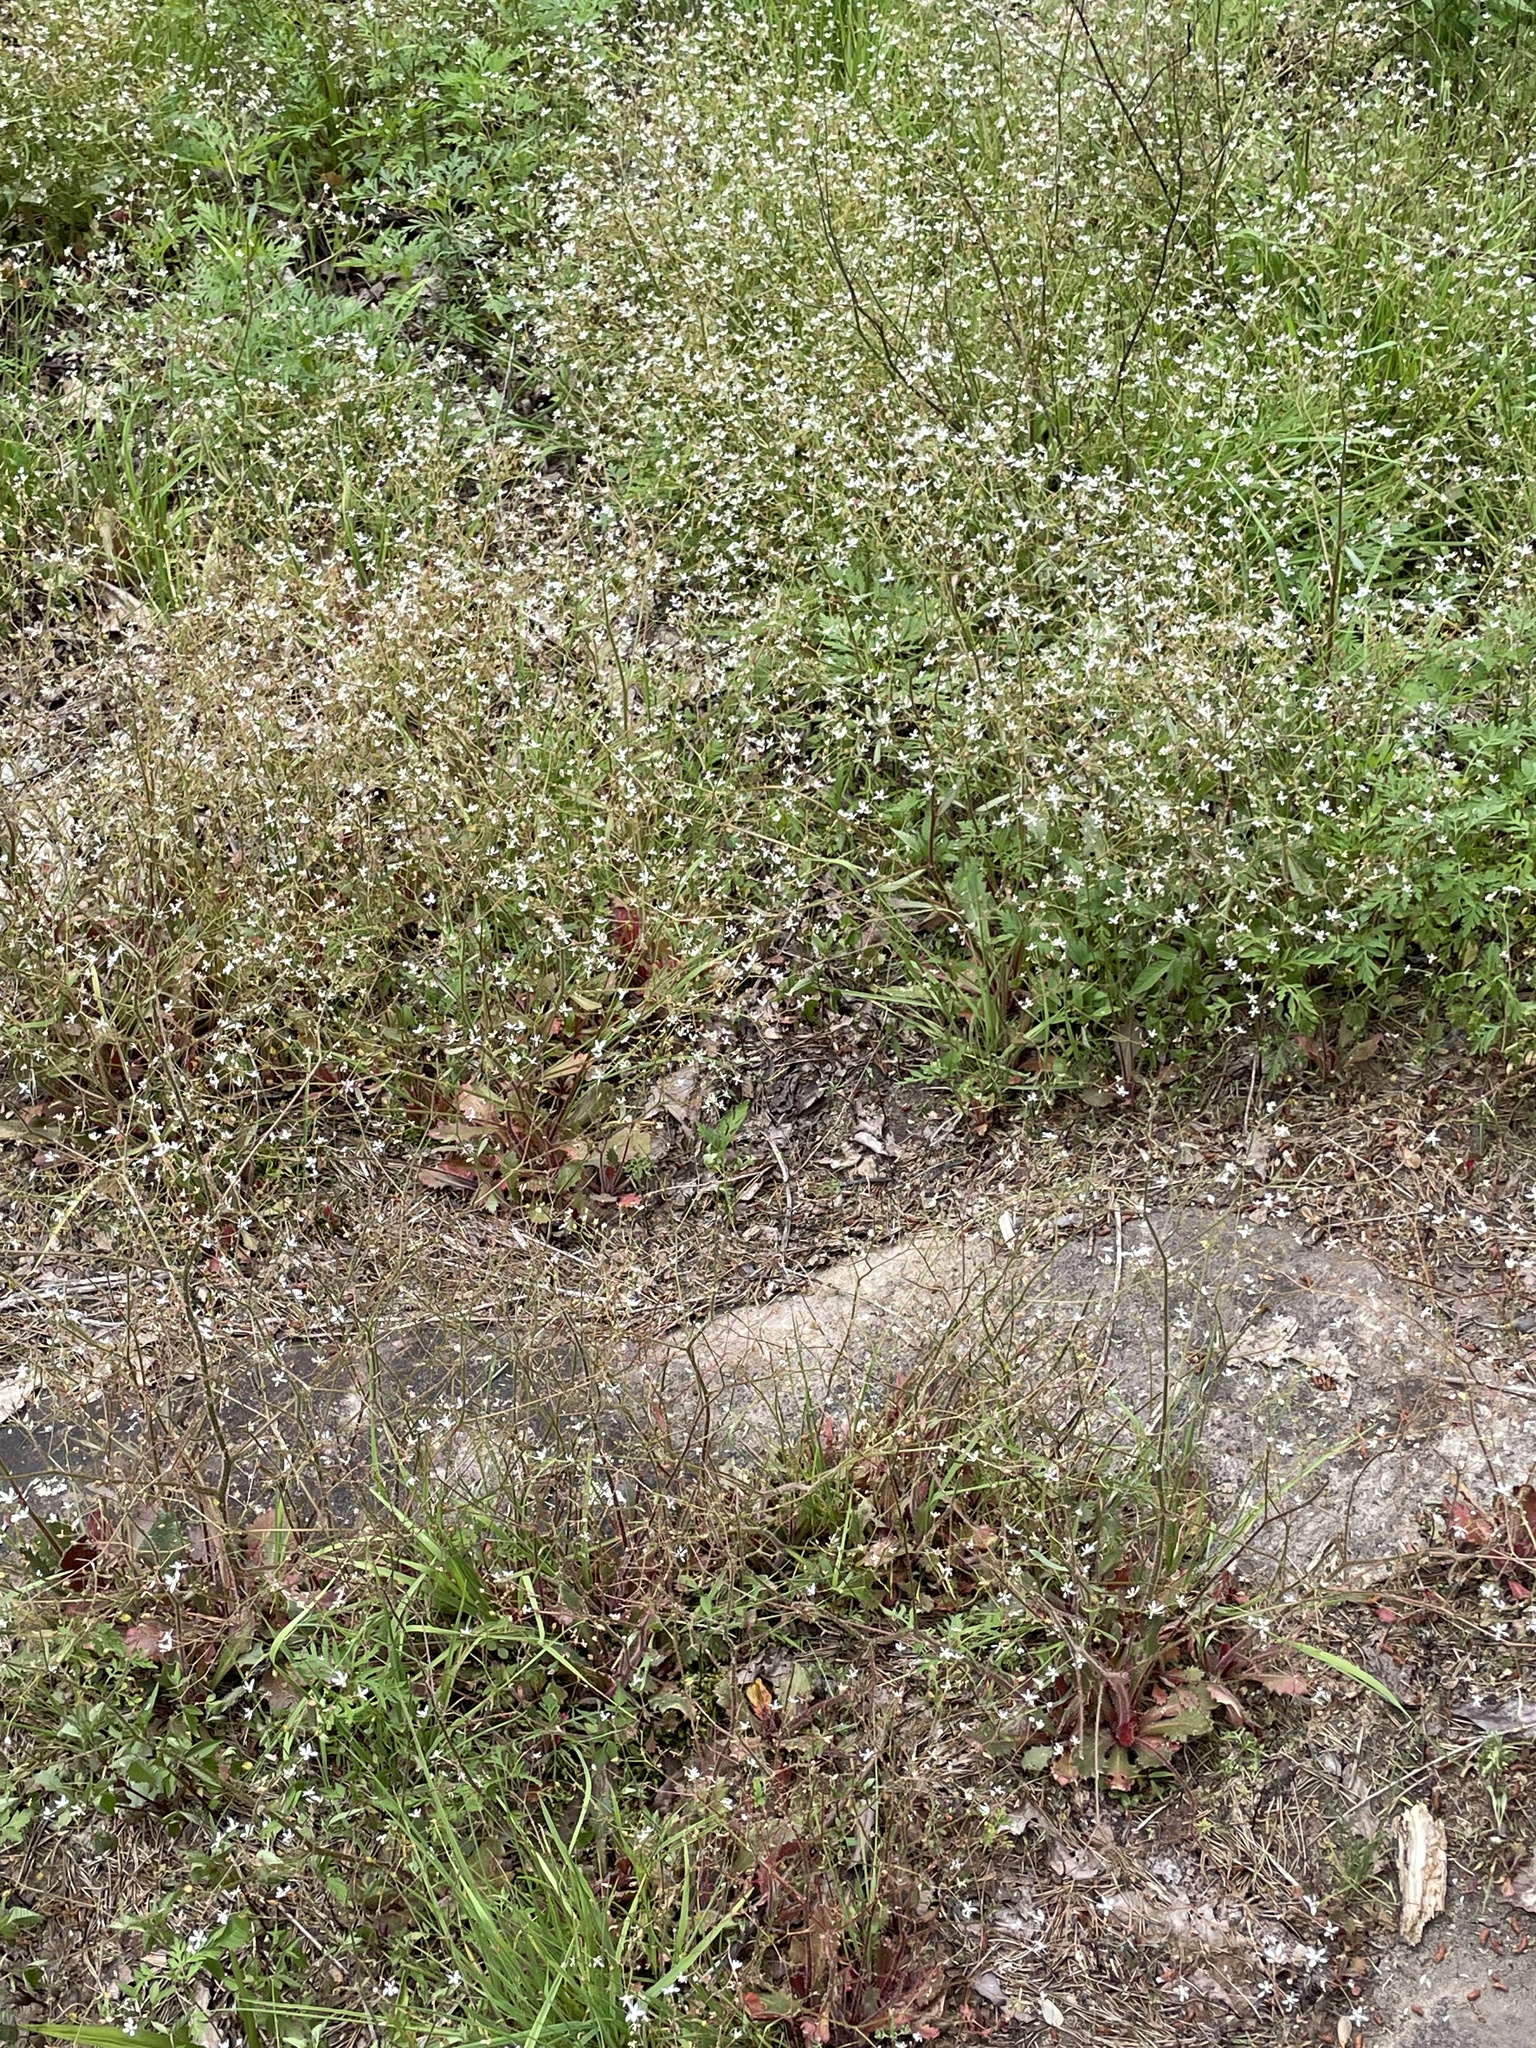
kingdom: Plantae
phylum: Tracheophyta
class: Magnoliopsida
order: Saxifragales
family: Saxifragaceae
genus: Micranthes
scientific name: Micranthes petiolaris
